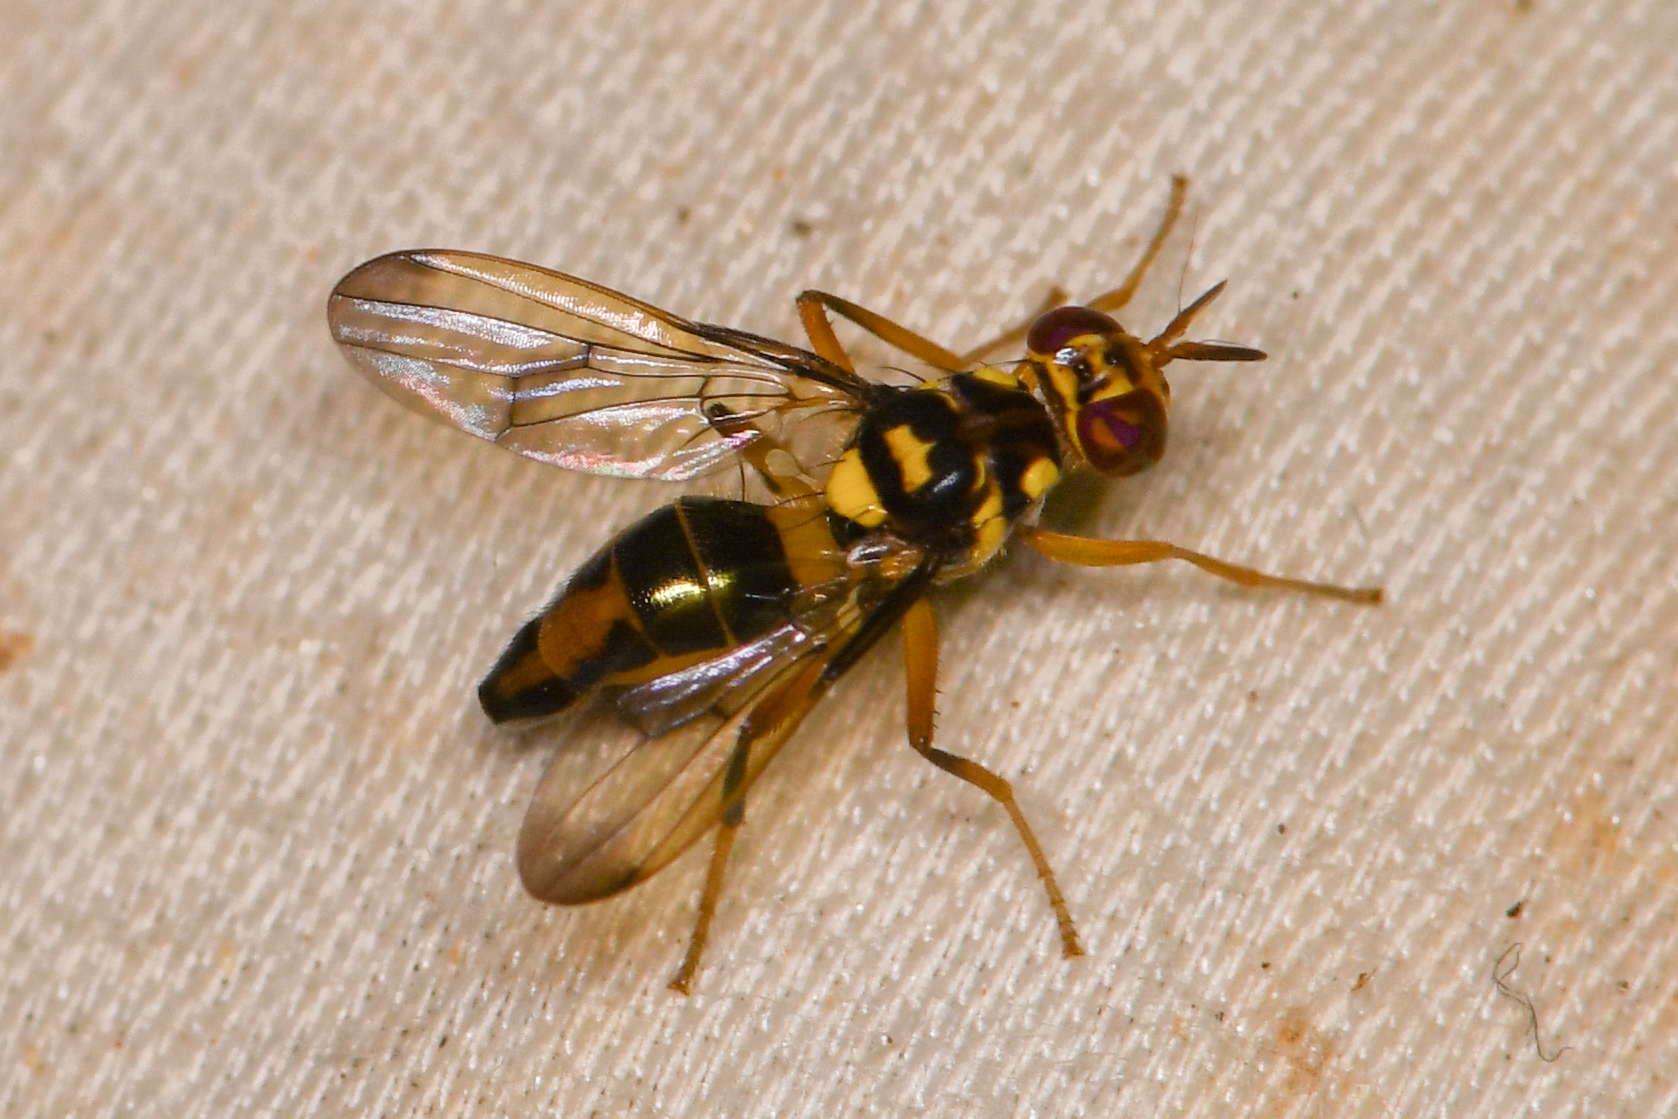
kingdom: Animalia
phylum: Arthropoda
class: Insecta
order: Diptera
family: Richardiidae
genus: Poecilomyia
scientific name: Poecilomyia longicornis
